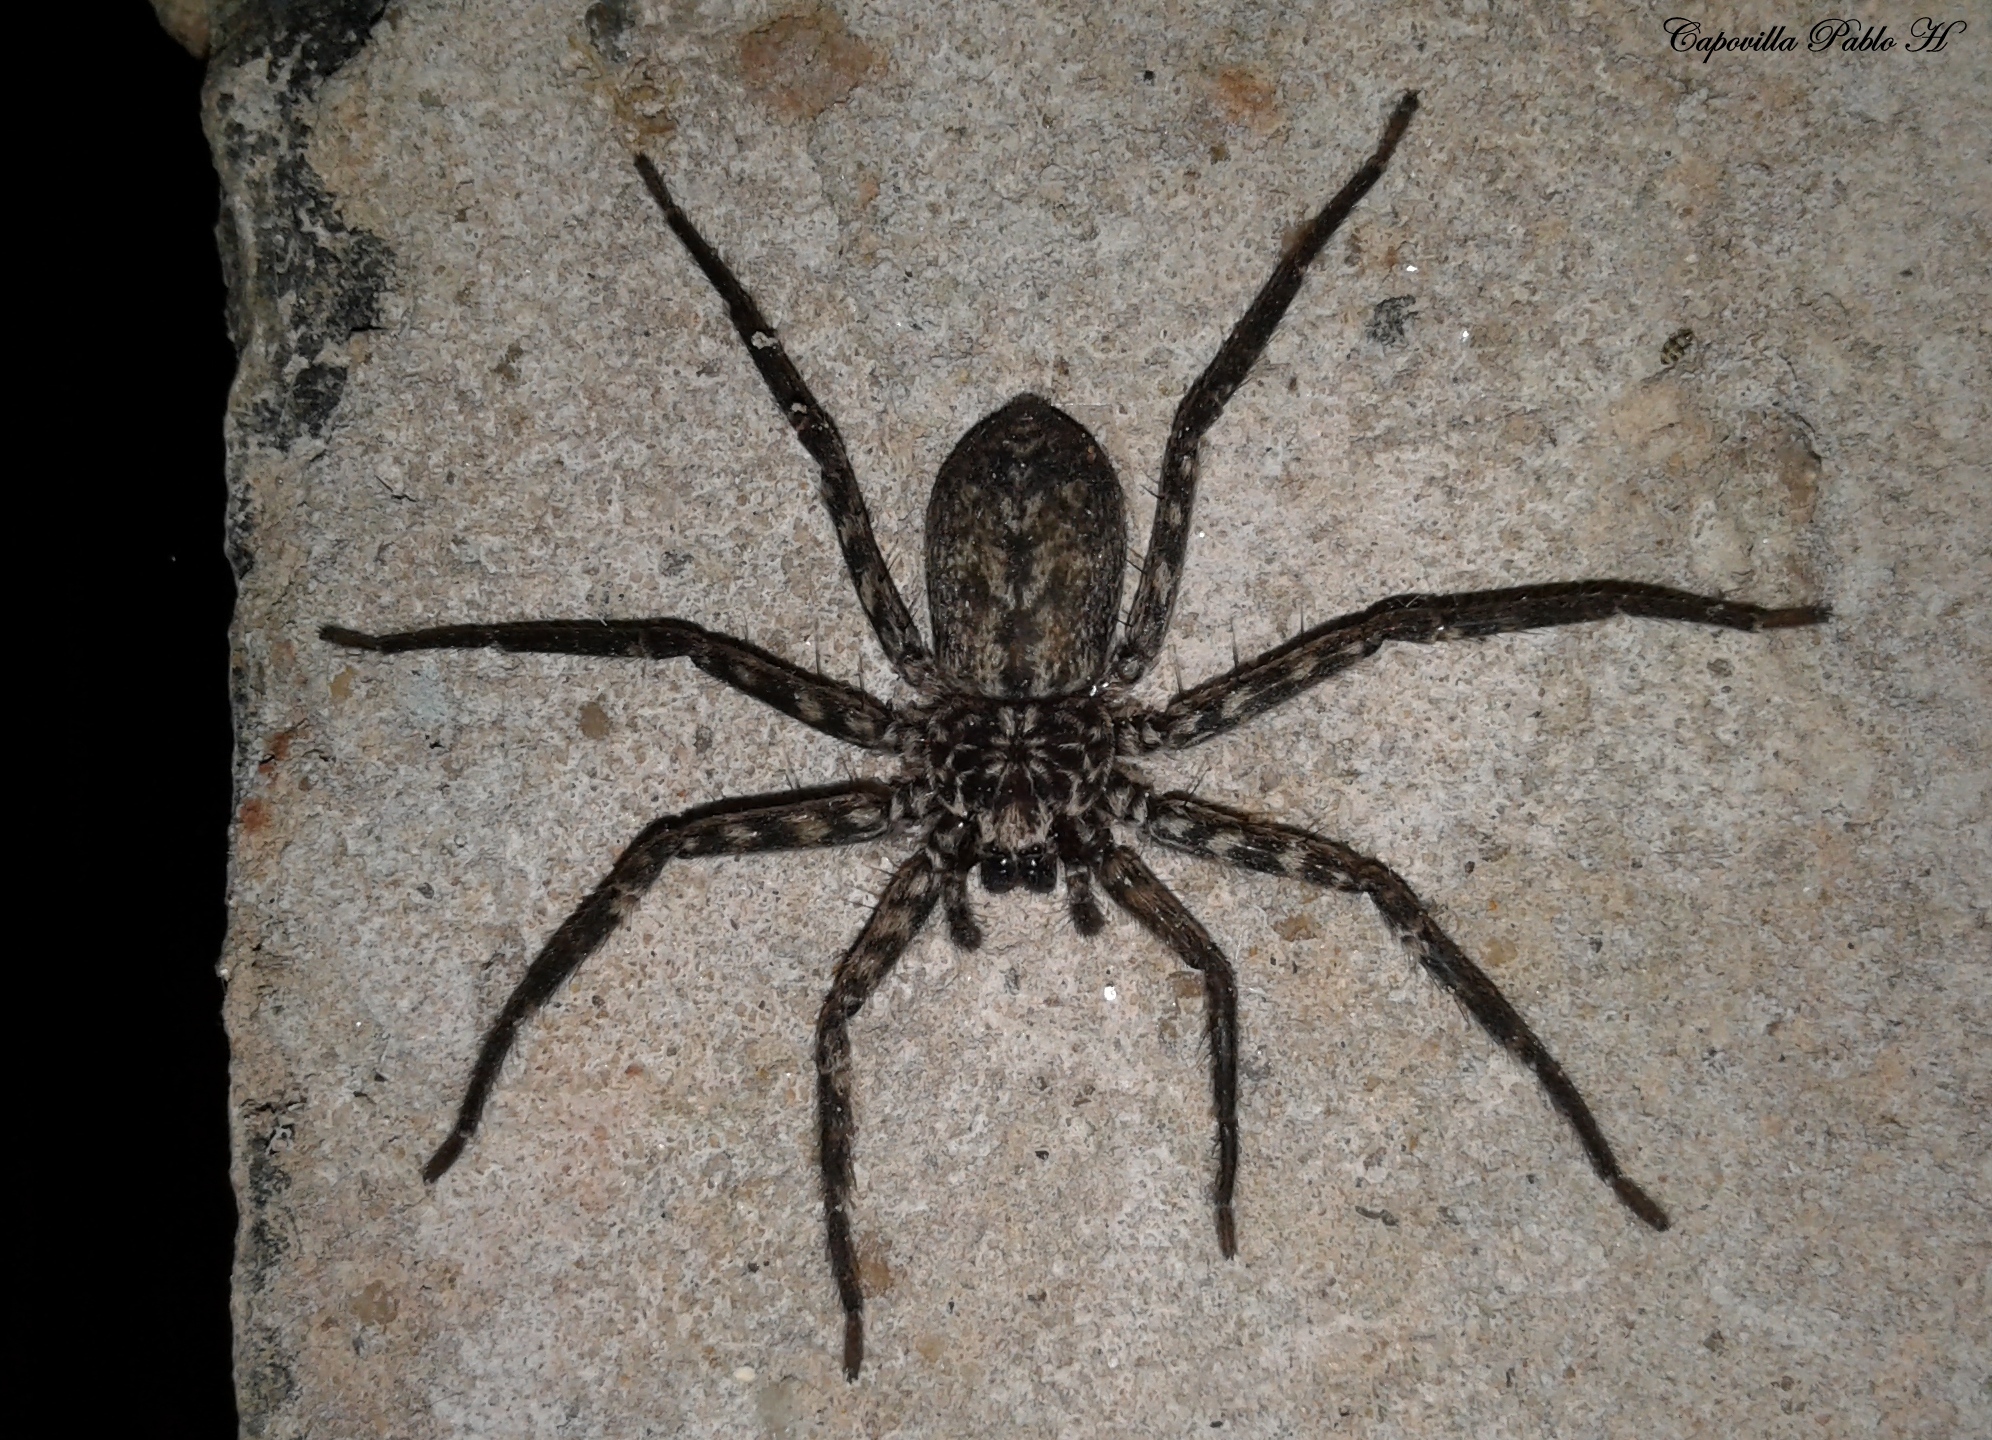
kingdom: Animalia
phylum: Arthropoda
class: Arachnida
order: Araneae
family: Selenopidae
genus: Selenops
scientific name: Selenops
